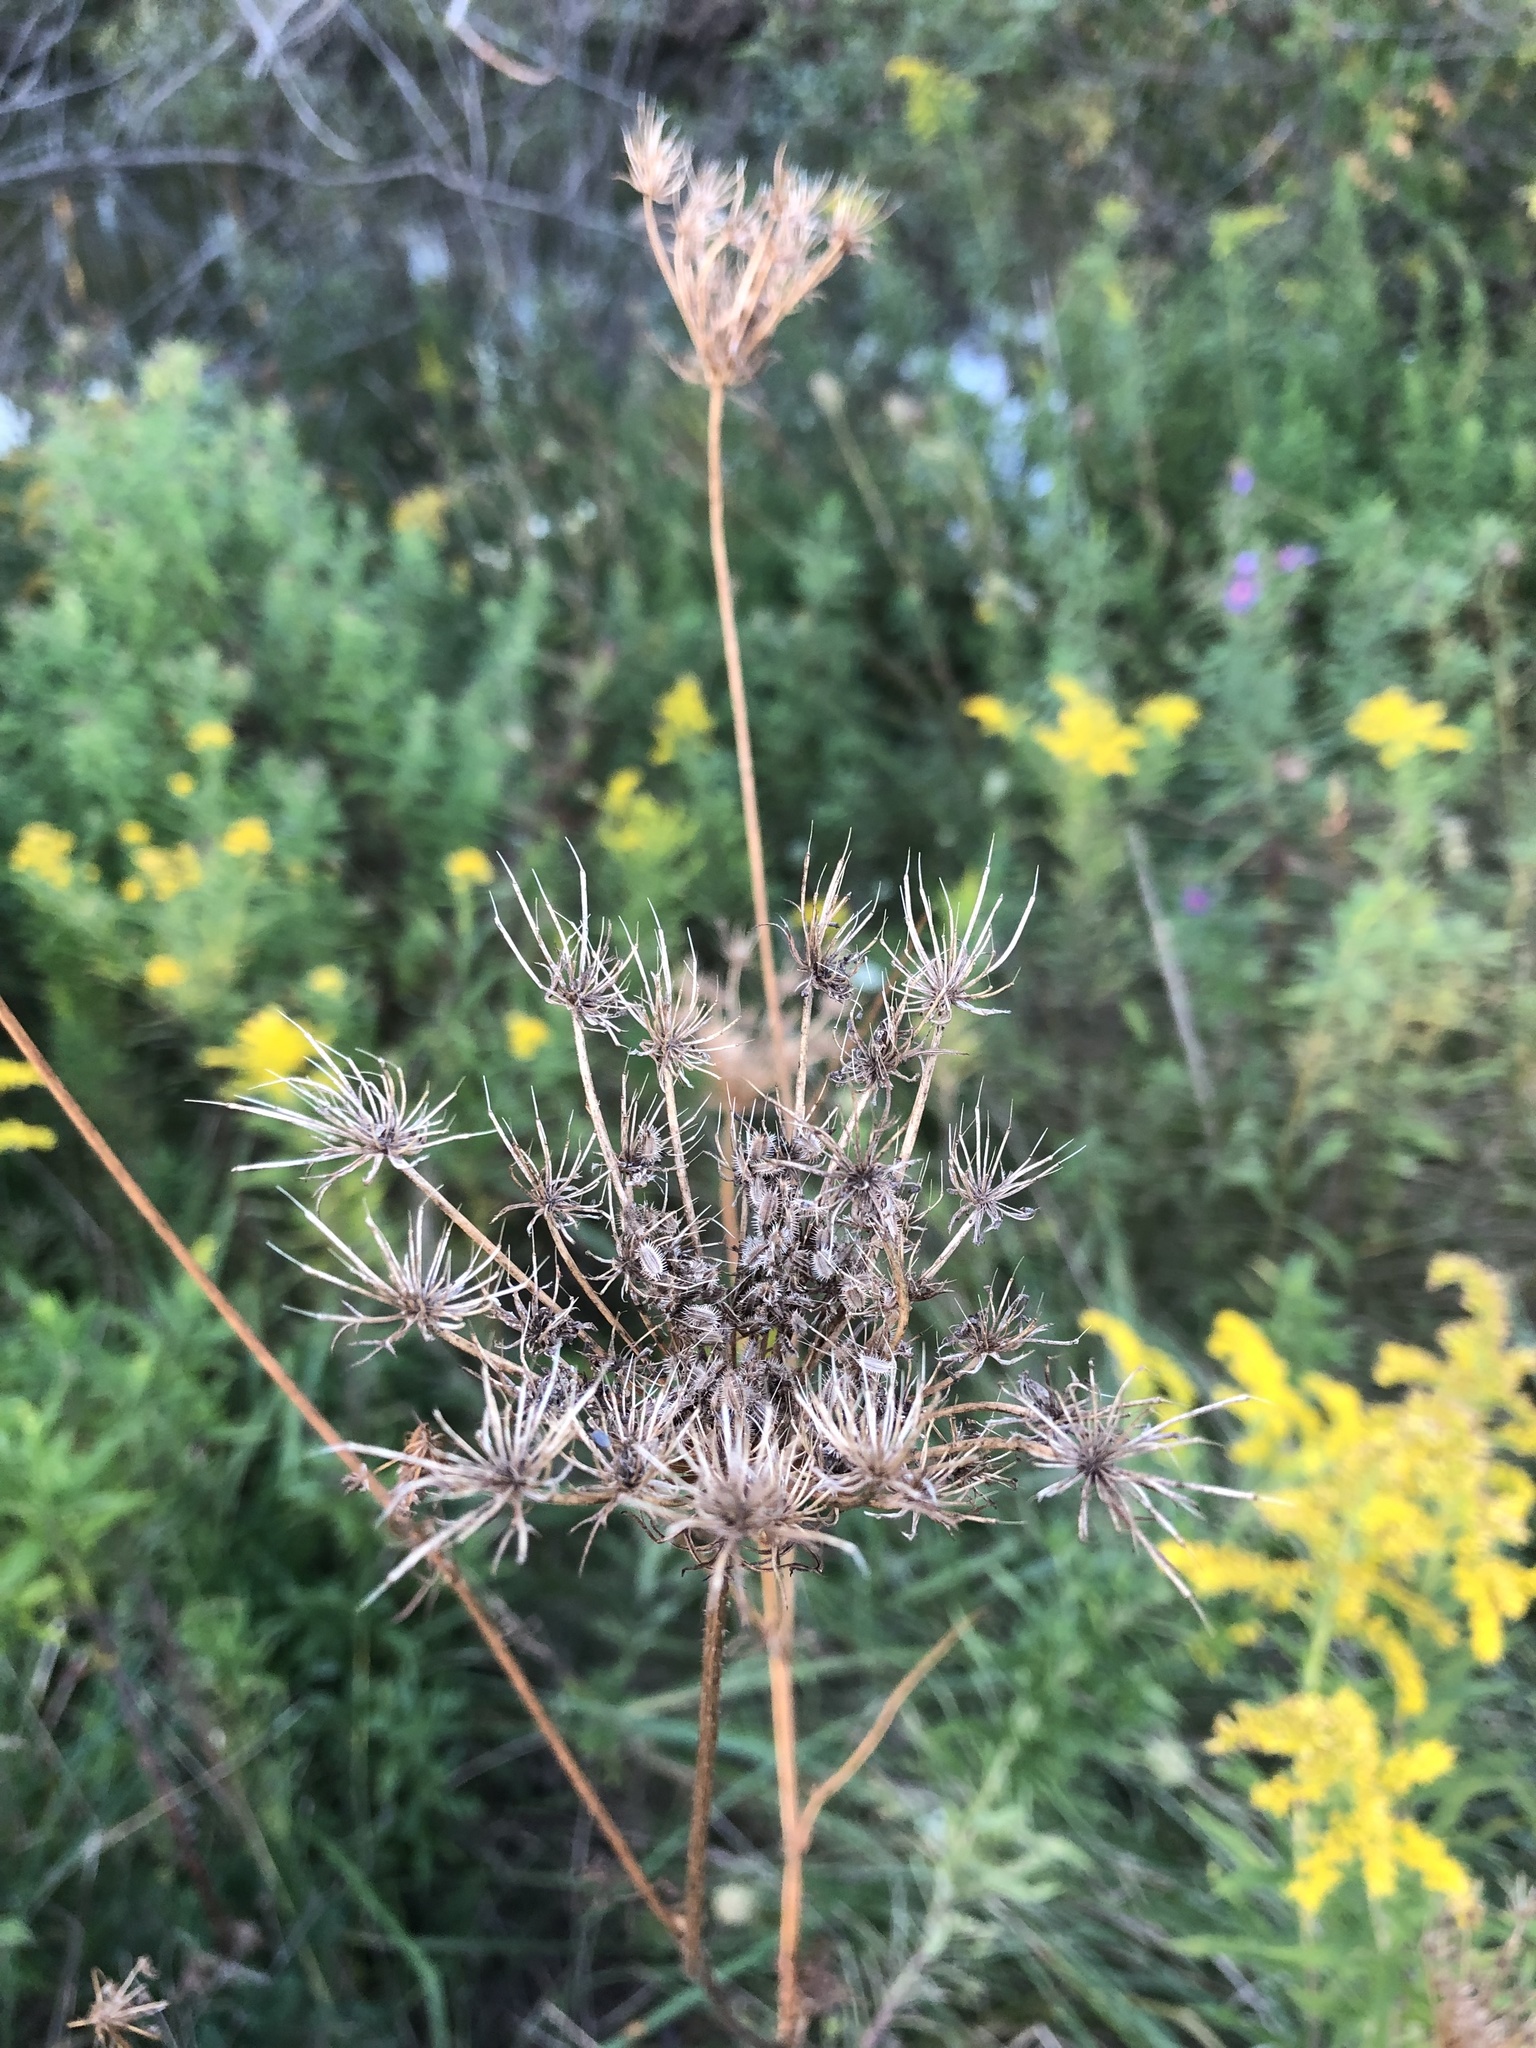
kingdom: Plantae
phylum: Tracheophyta
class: Magnoliopsida
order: Apiales
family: Apiaceae
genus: Daucus
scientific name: Daucus carota
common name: Wild carrot
